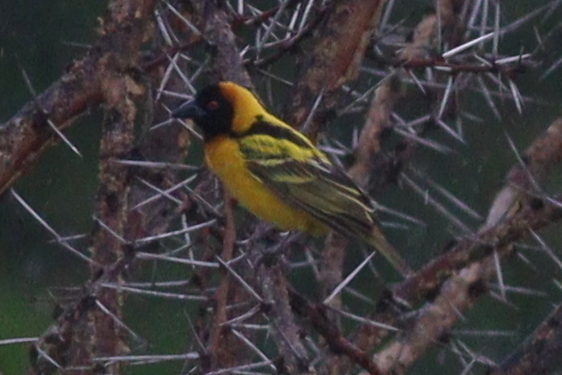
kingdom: Animalia
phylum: Chordata
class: Aves
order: Passeriformes
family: Ploceidae
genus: Ploceus
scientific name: Ploceus cucullatus
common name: Village weaver
